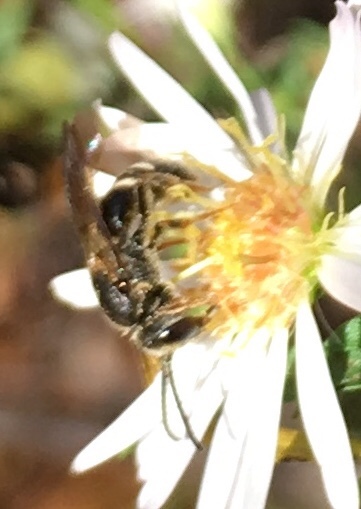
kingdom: Animalia
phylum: Arthropoda
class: Insecta
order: Hymenoptera
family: Halictidae
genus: Lasioglossum
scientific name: Lasioglossum fuscipenne
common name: Brown-winged sweat bee
